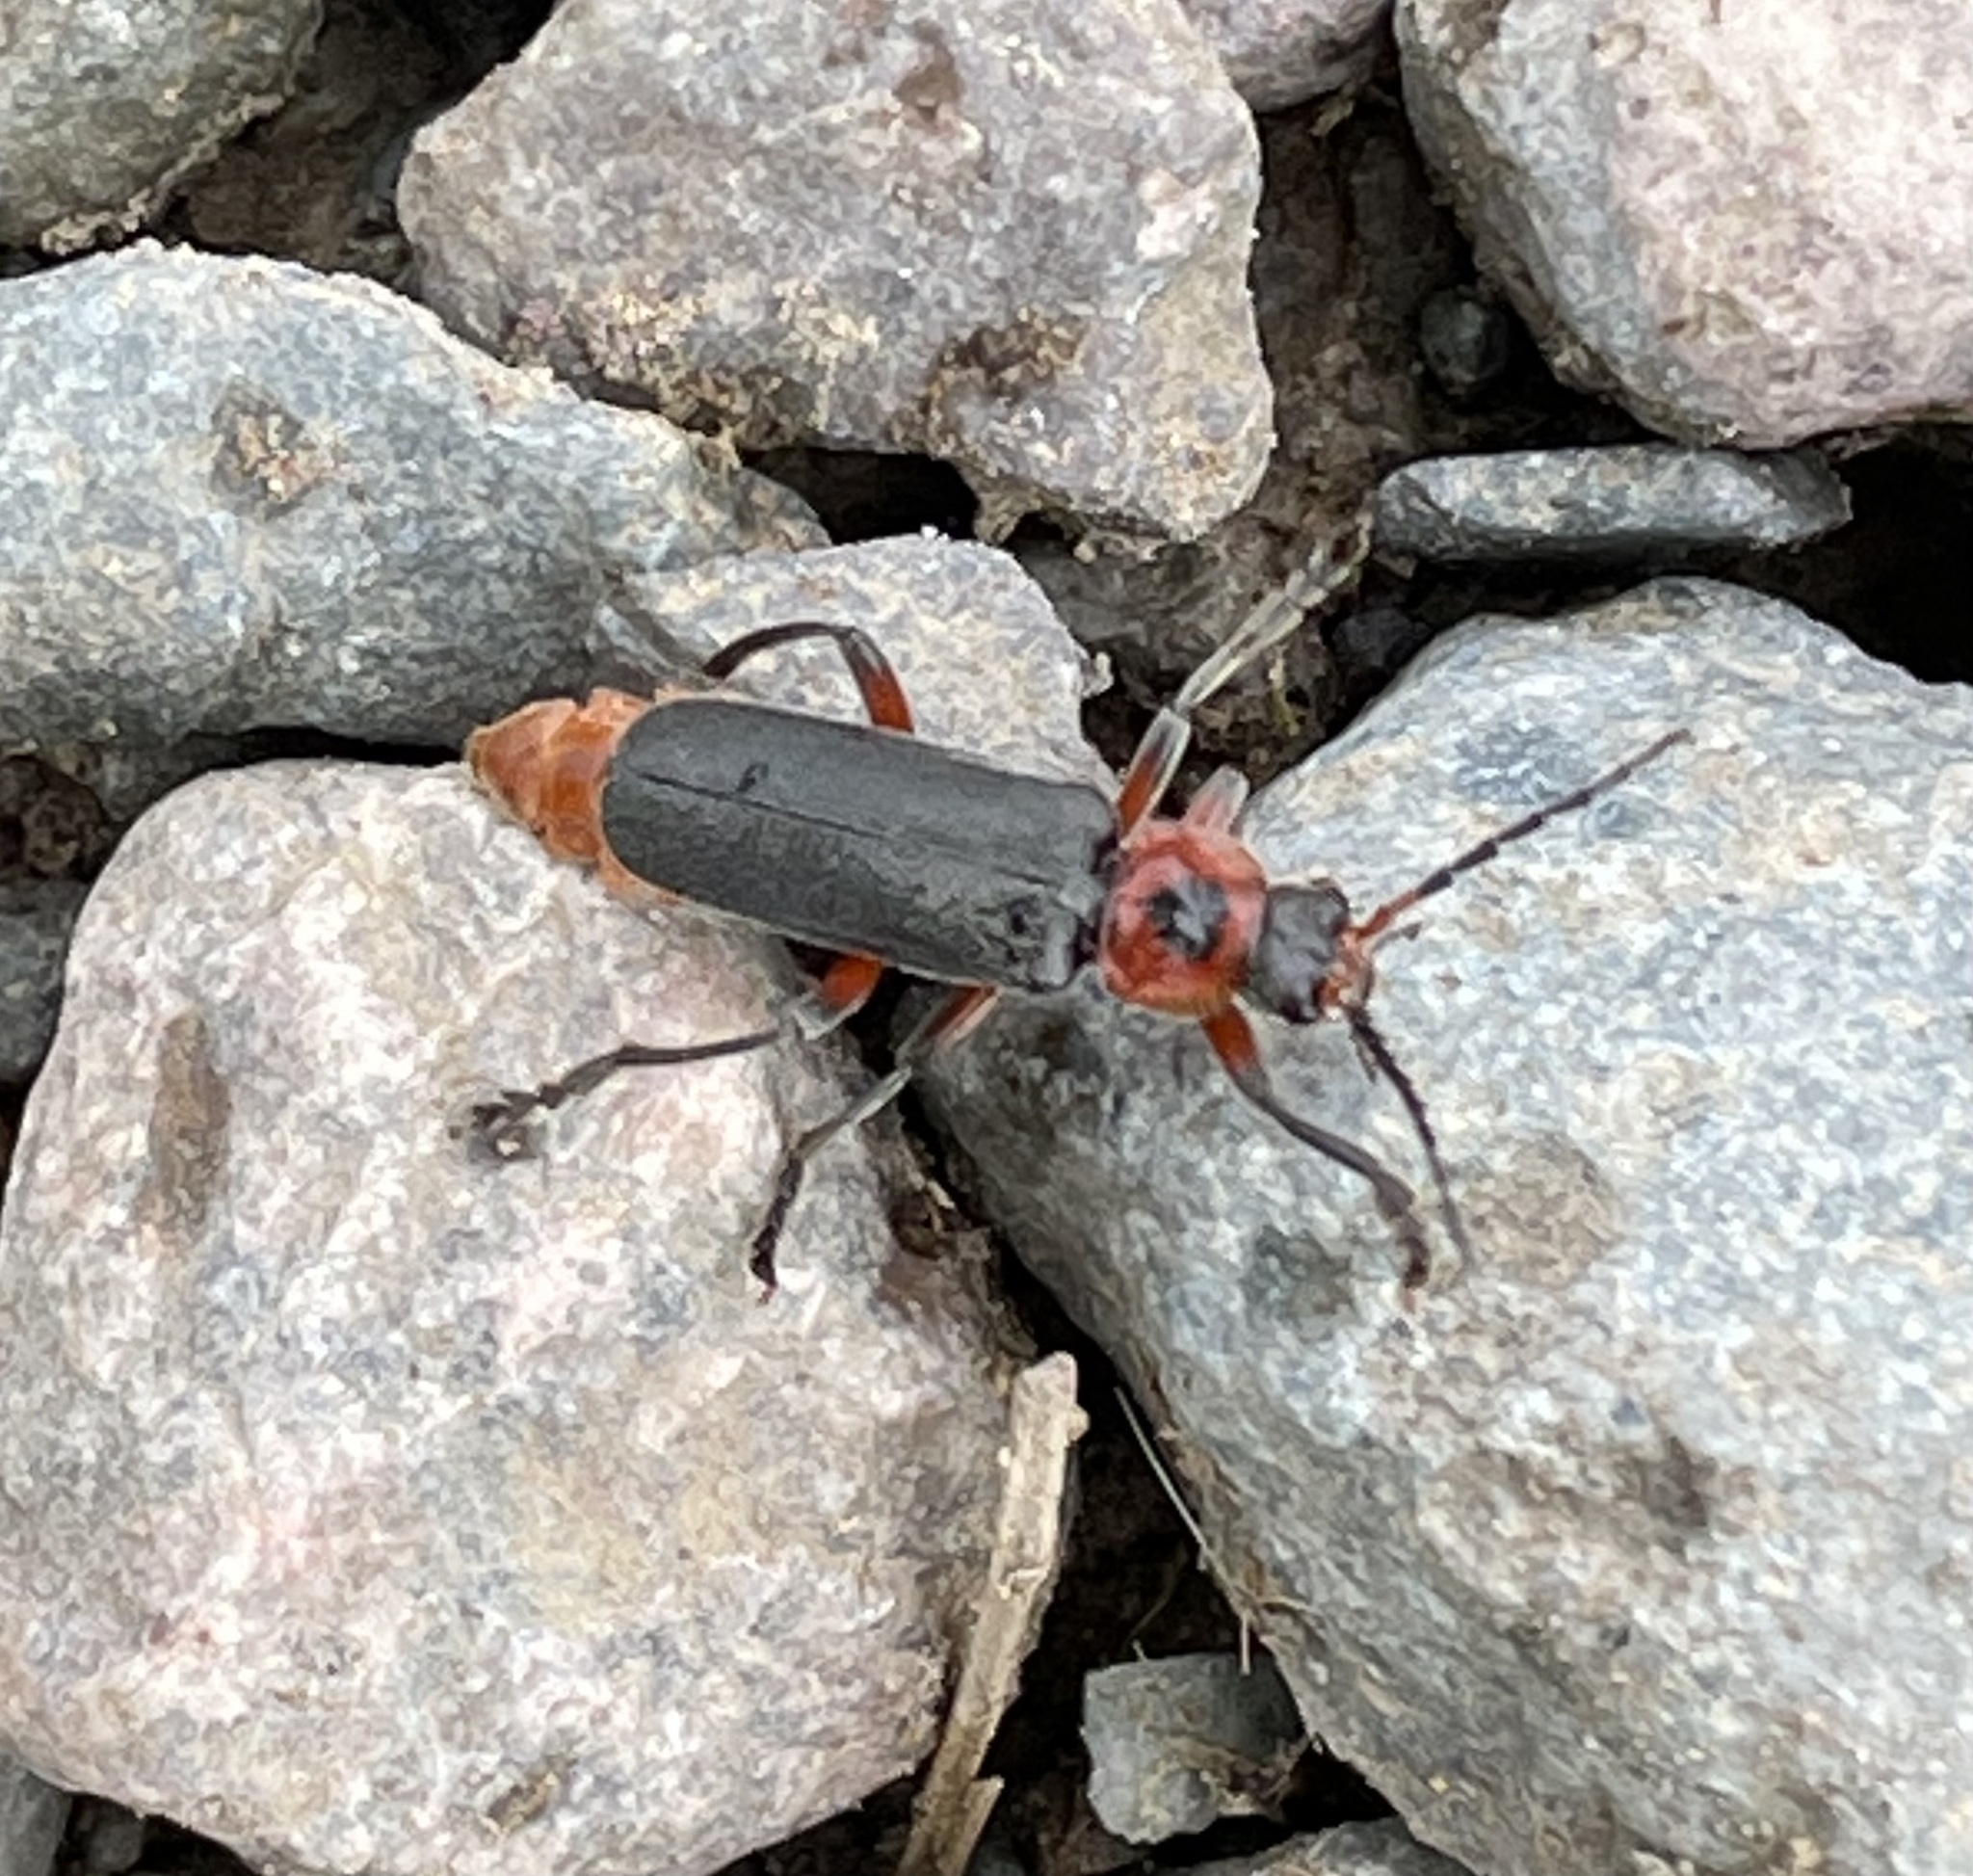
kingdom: Animalia
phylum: Arthropoda
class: Insecta
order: Coleoptera
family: Cantharidae
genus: Cantharis
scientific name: Cantharis rustica
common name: Soldier beetle
